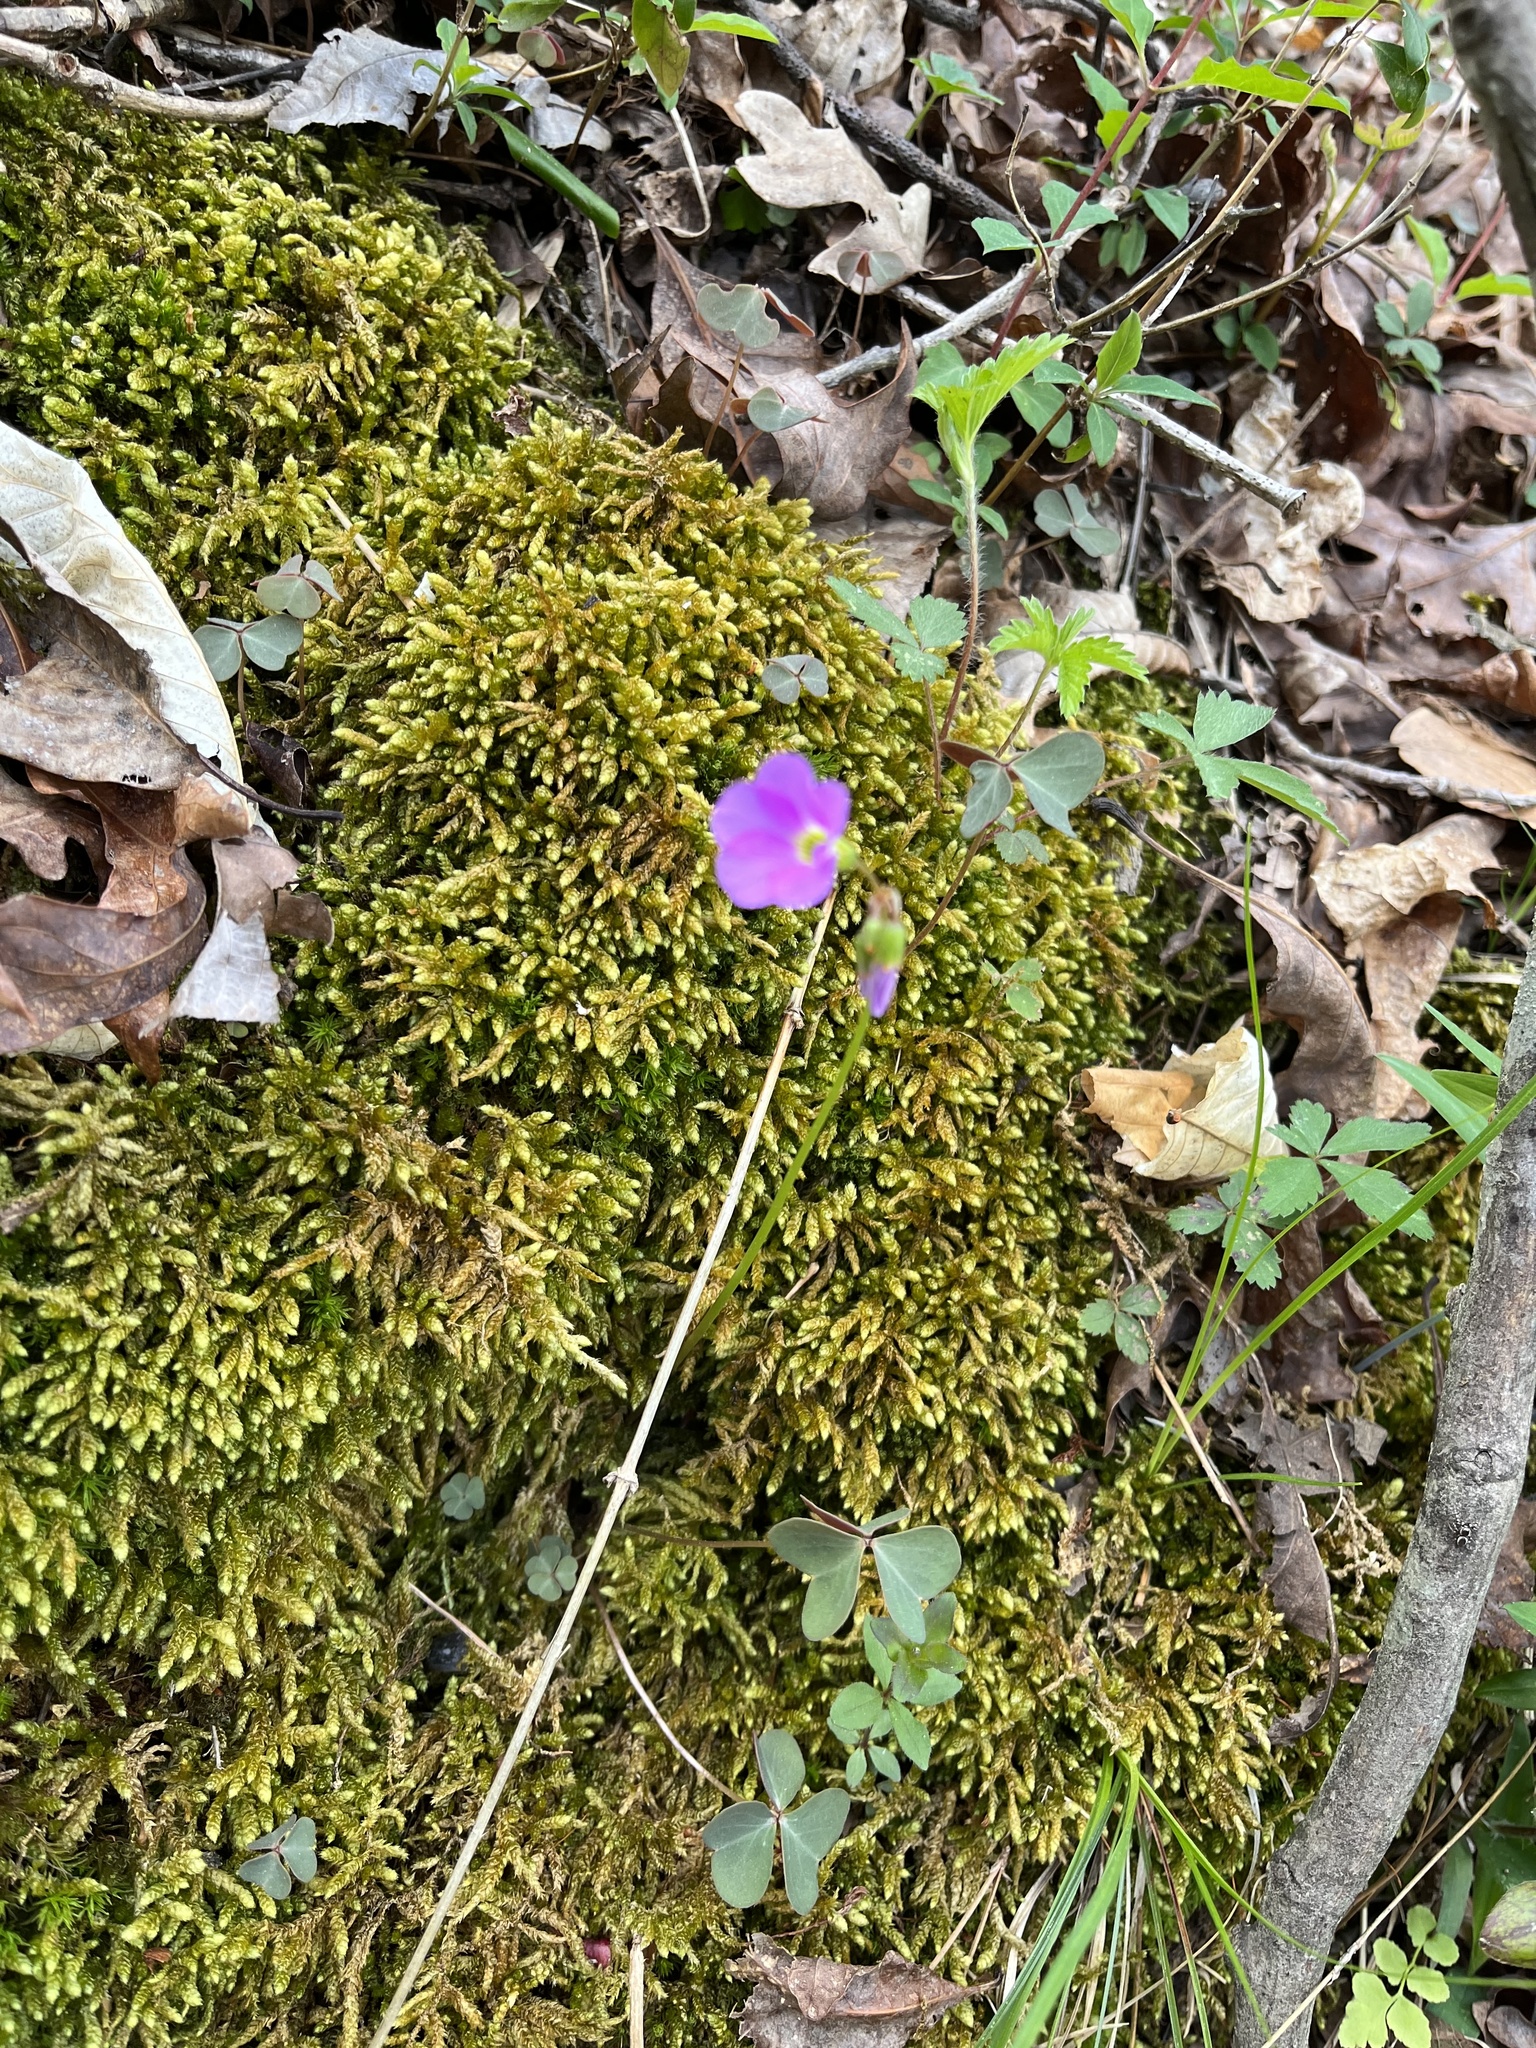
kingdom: Plantae
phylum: Tracheophyta
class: Magnoliopsida
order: Oxalidales
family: Oxalidaceae
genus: Oxalis
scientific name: Oxalis violacea
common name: Violet wood-sorrel
